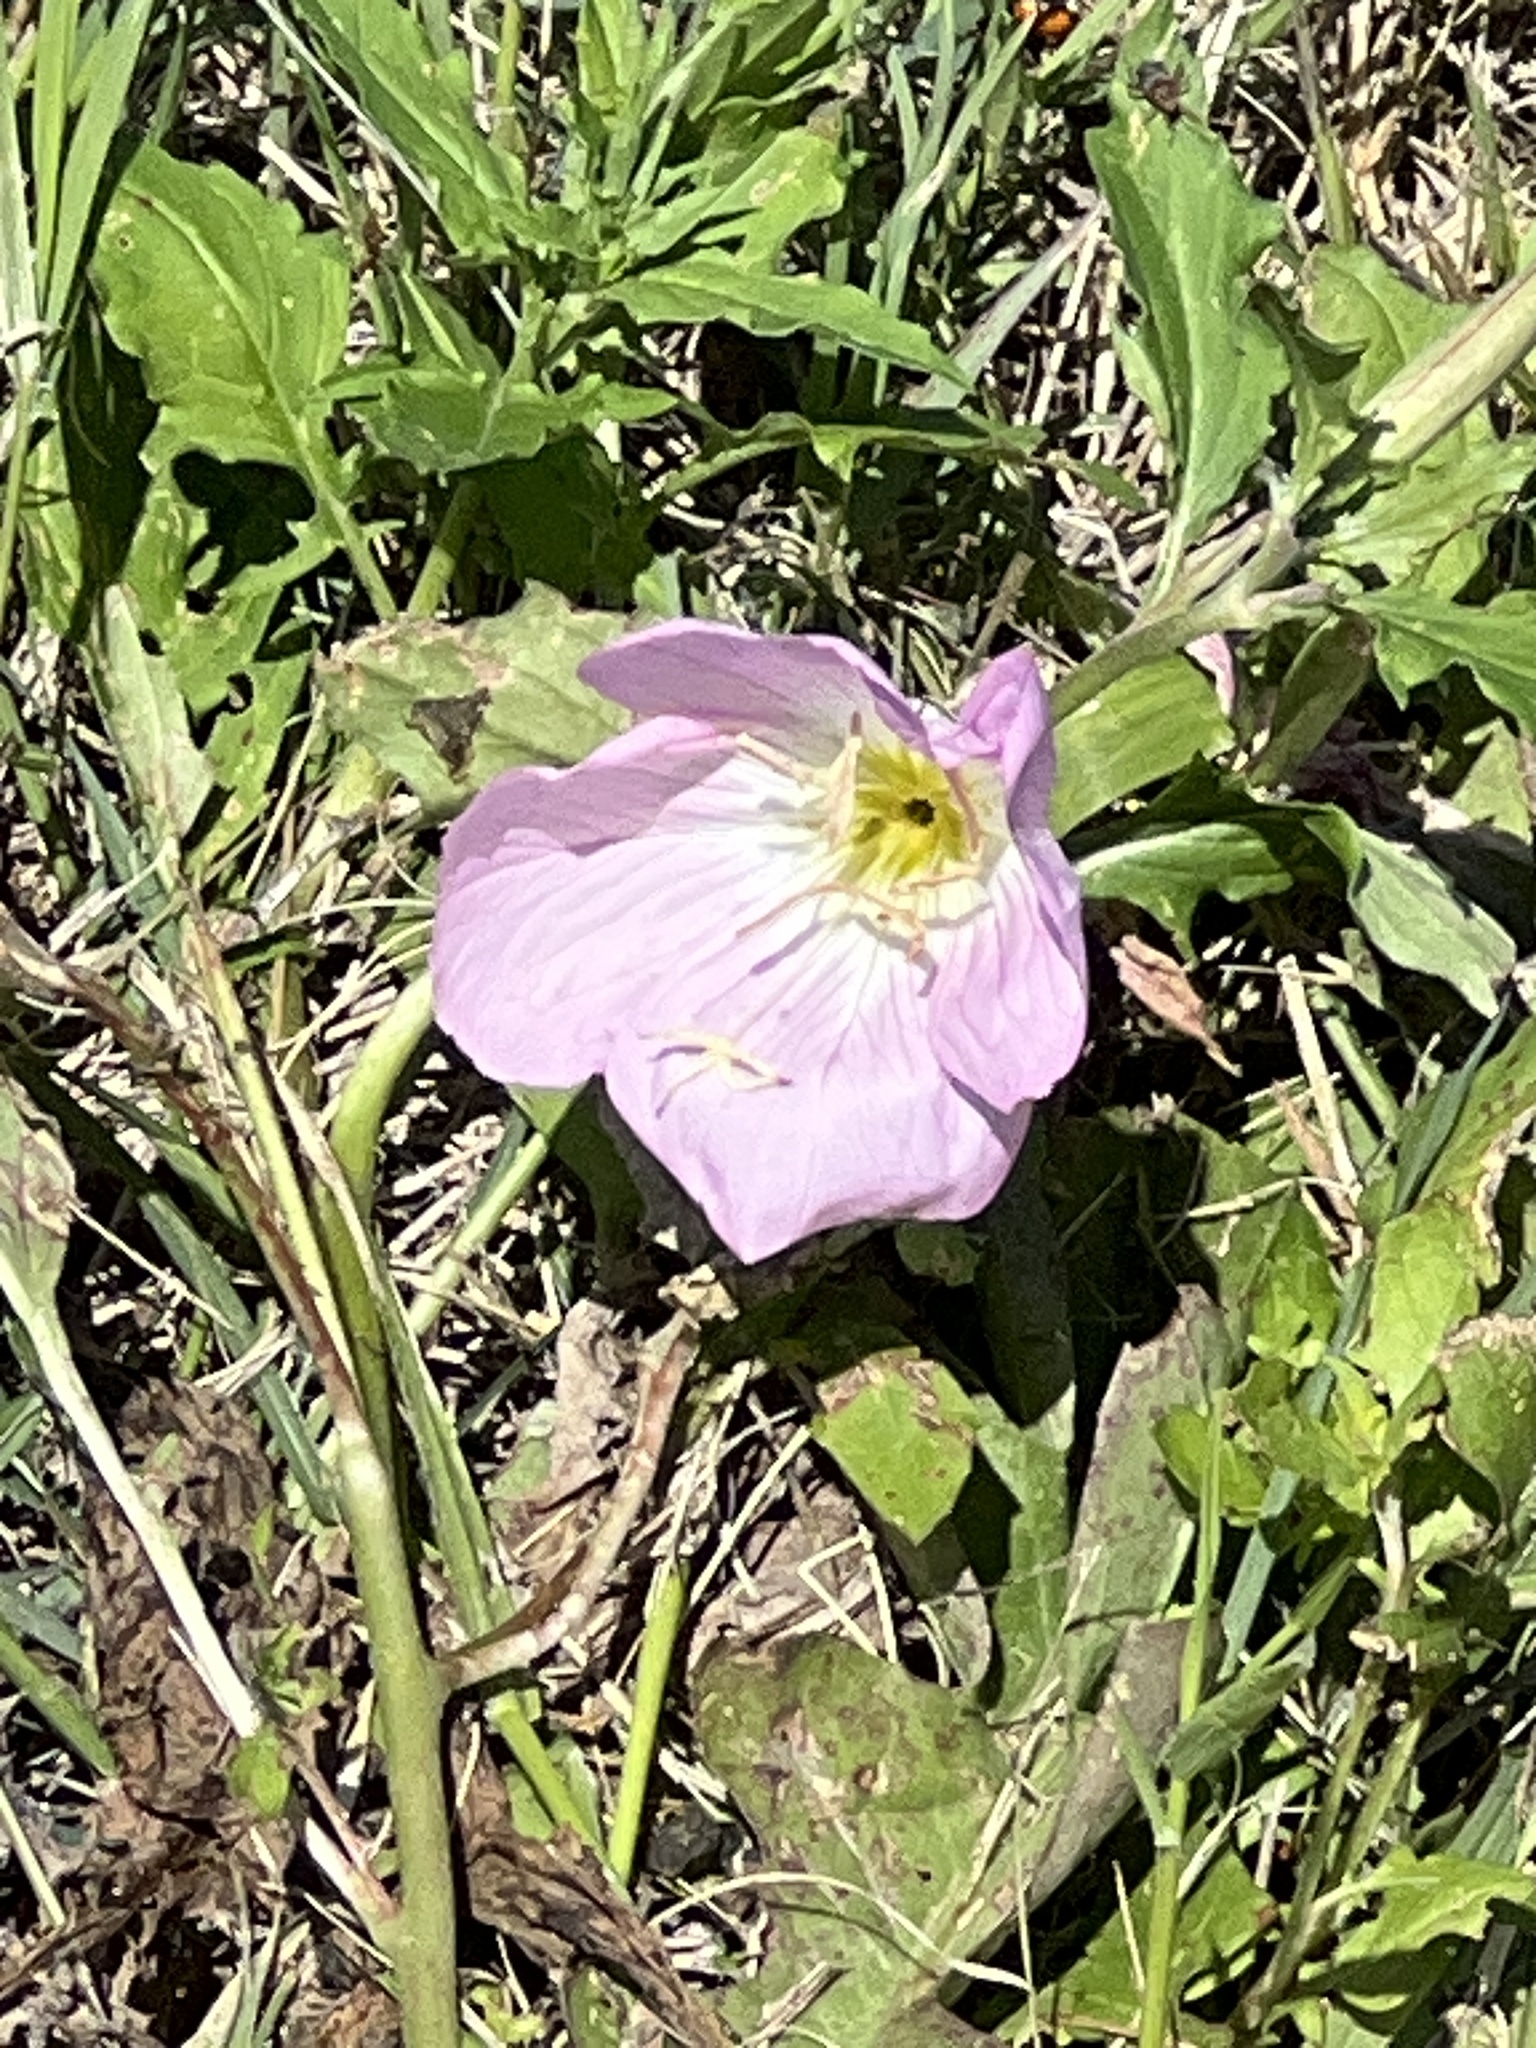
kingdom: Plantae
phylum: Tracheophyta
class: Magnoliopsida
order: Myrtales
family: Onagraceae
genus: Oenothera
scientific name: Oenothera speciosa
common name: White evening-primrose
